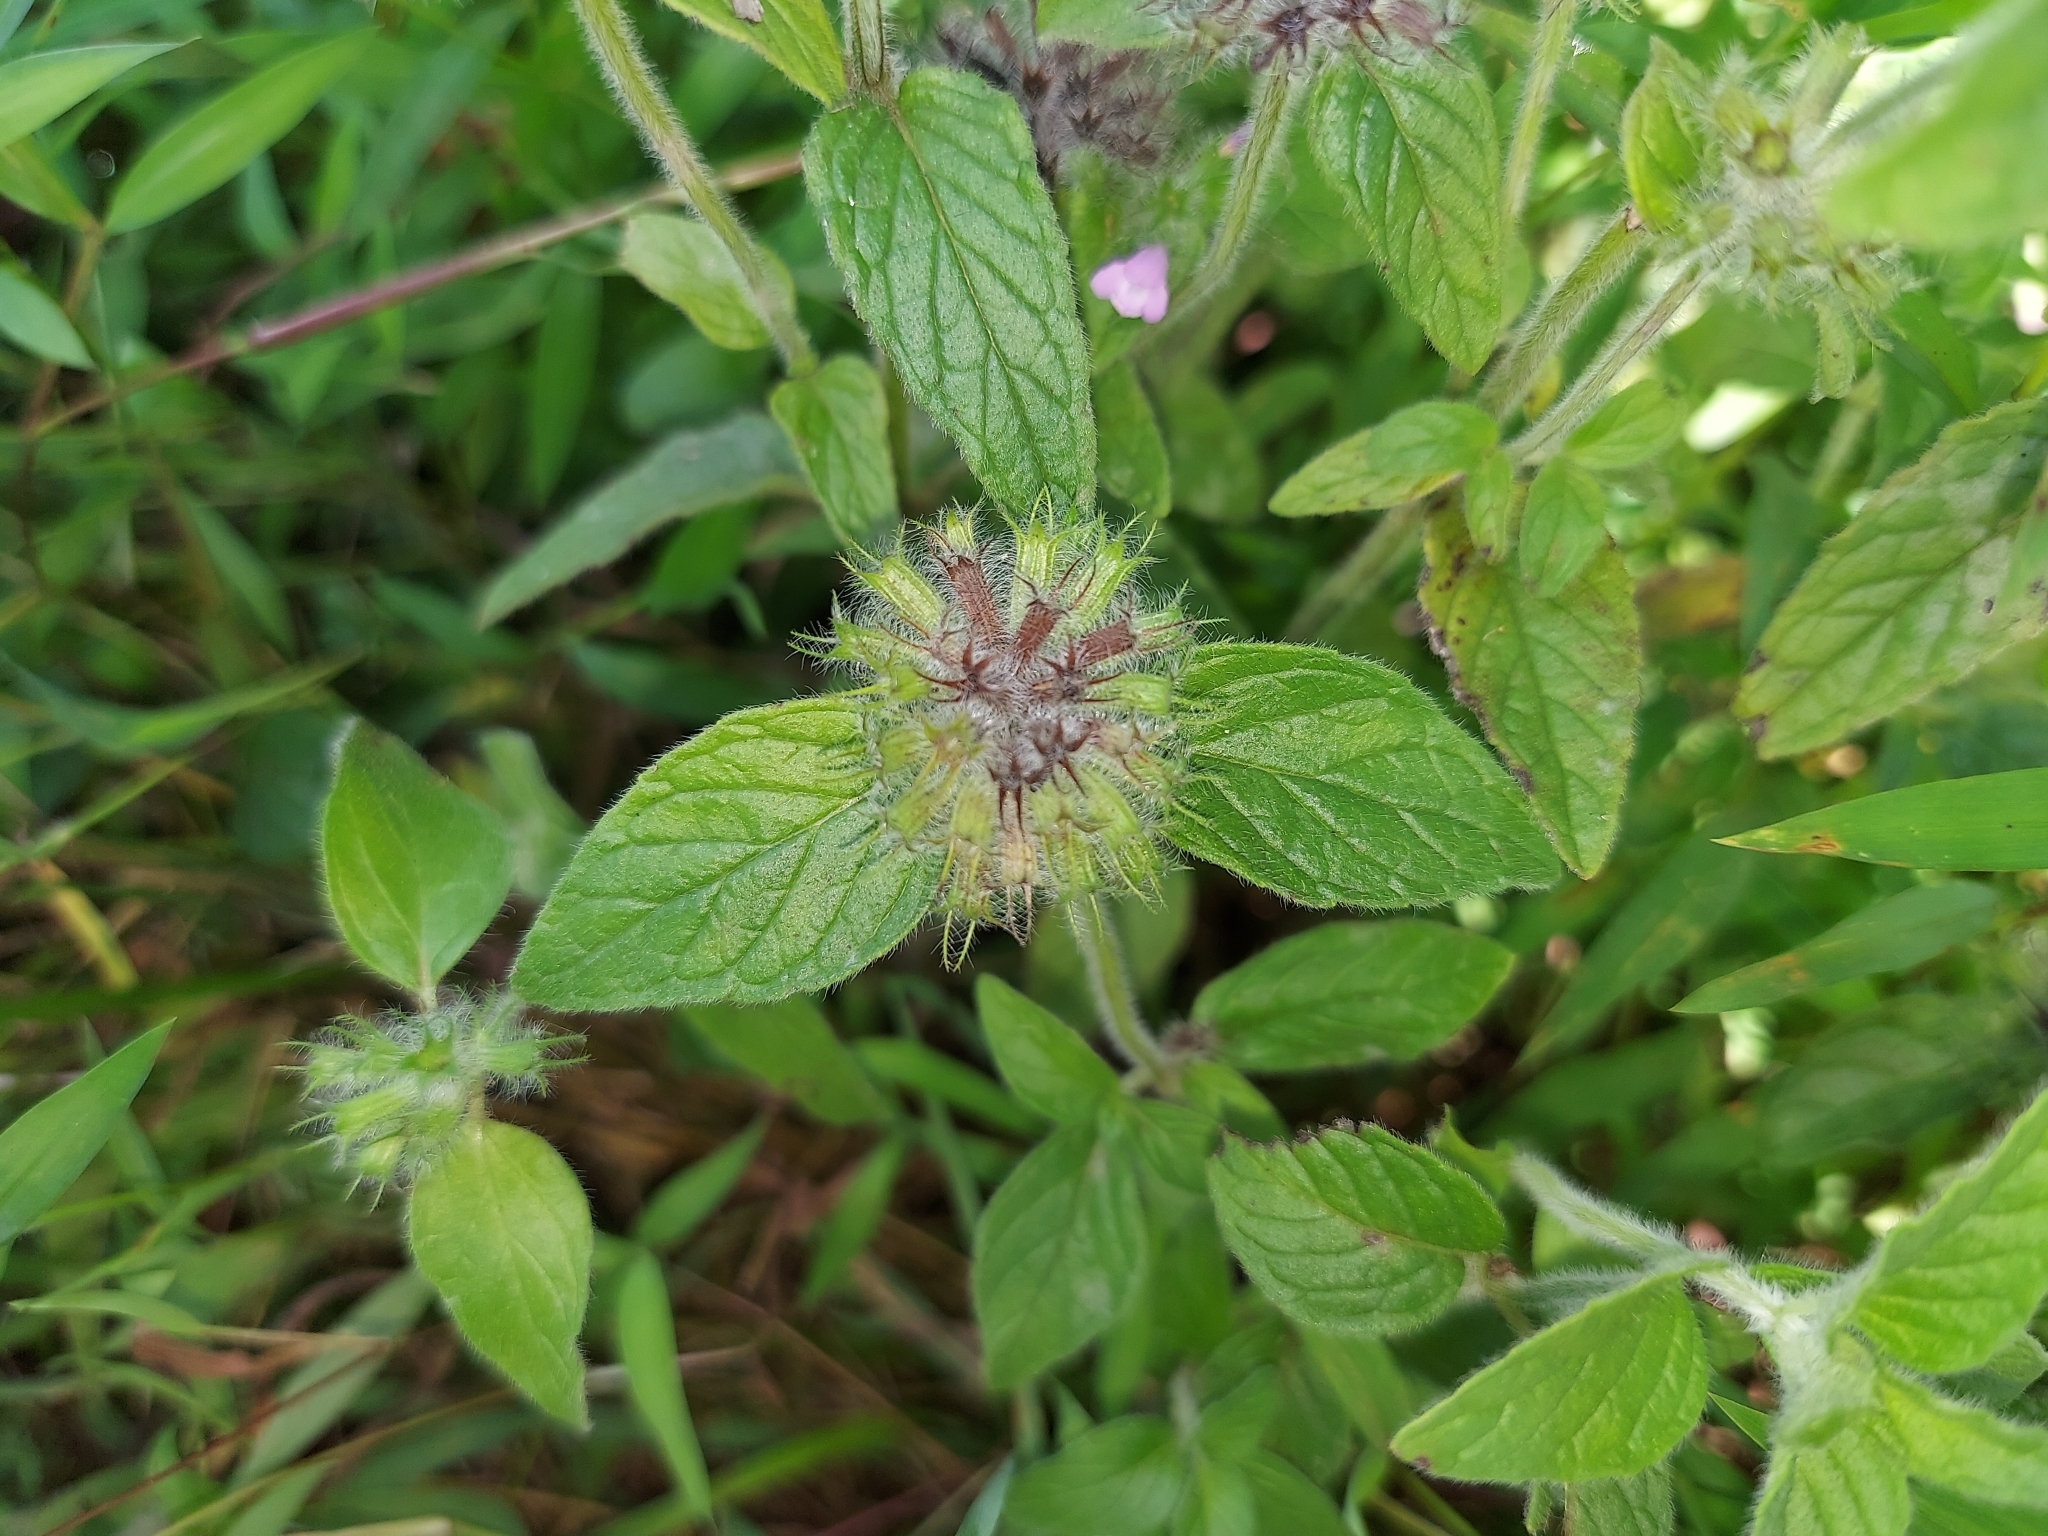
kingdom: Plantae
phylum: Tracheophyta
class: Magnoliopsida
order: Lamiales
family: Lamiaceae
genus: Clinopodium
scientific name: Clinopodium vulgare
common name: Wild basil
